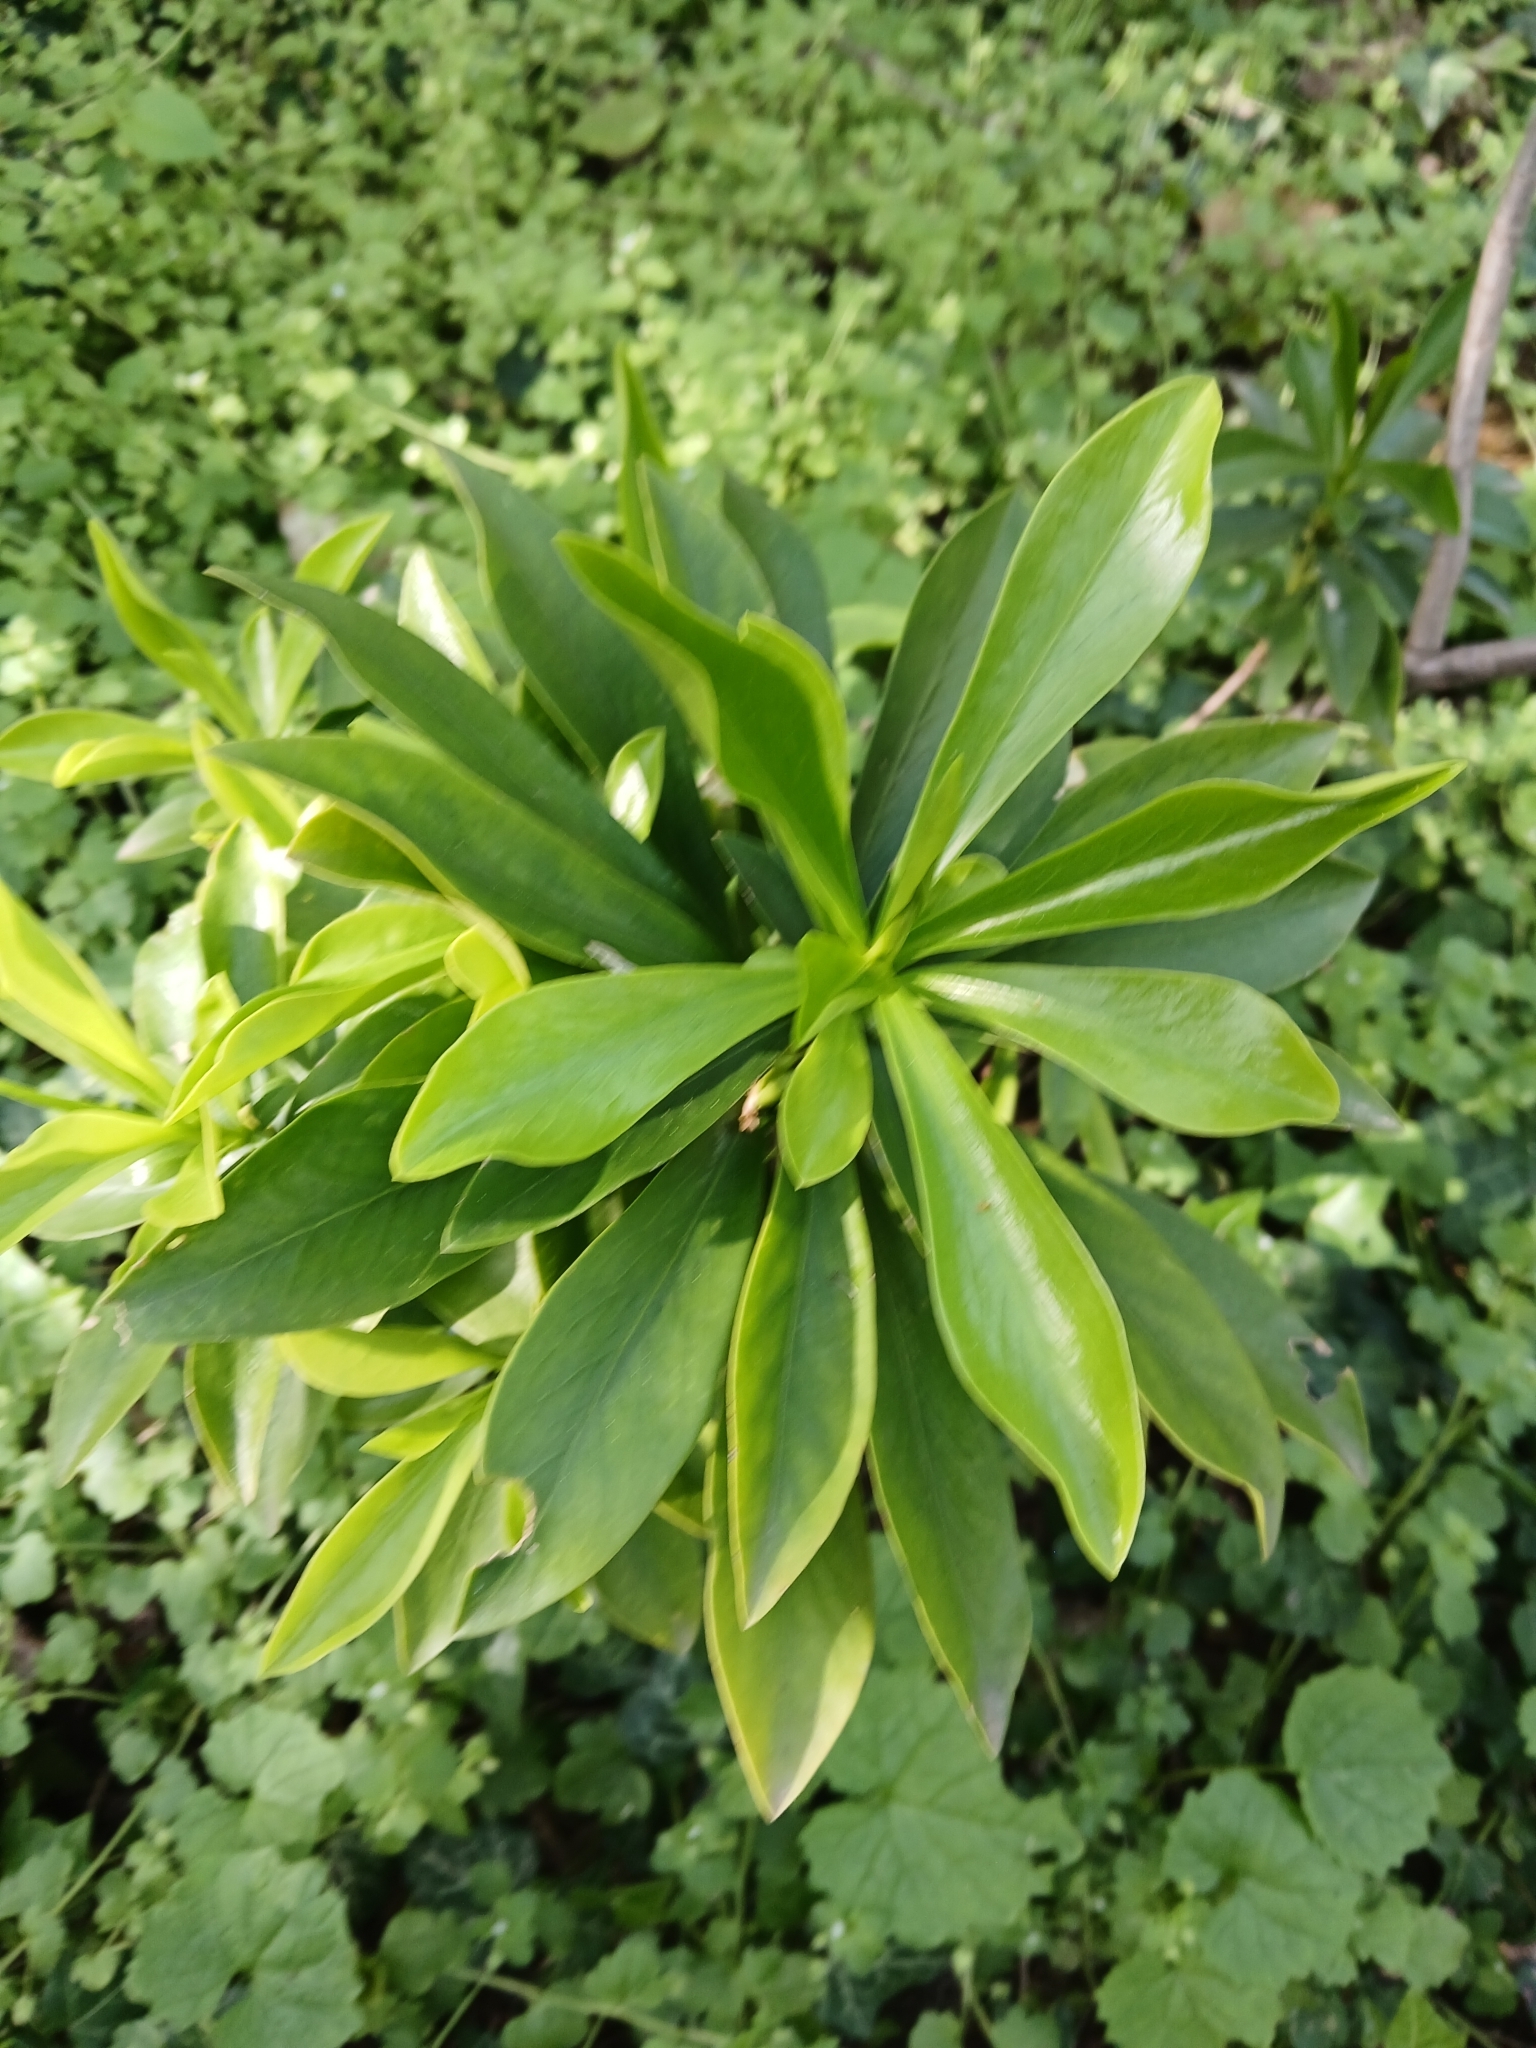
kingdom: Plantae
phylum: Tracheophyta
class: Magnoliopsida
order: Malvales
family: Thymelaeaceae
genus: Daphne
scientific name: Daphne laureola
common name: Spurge-laurel
